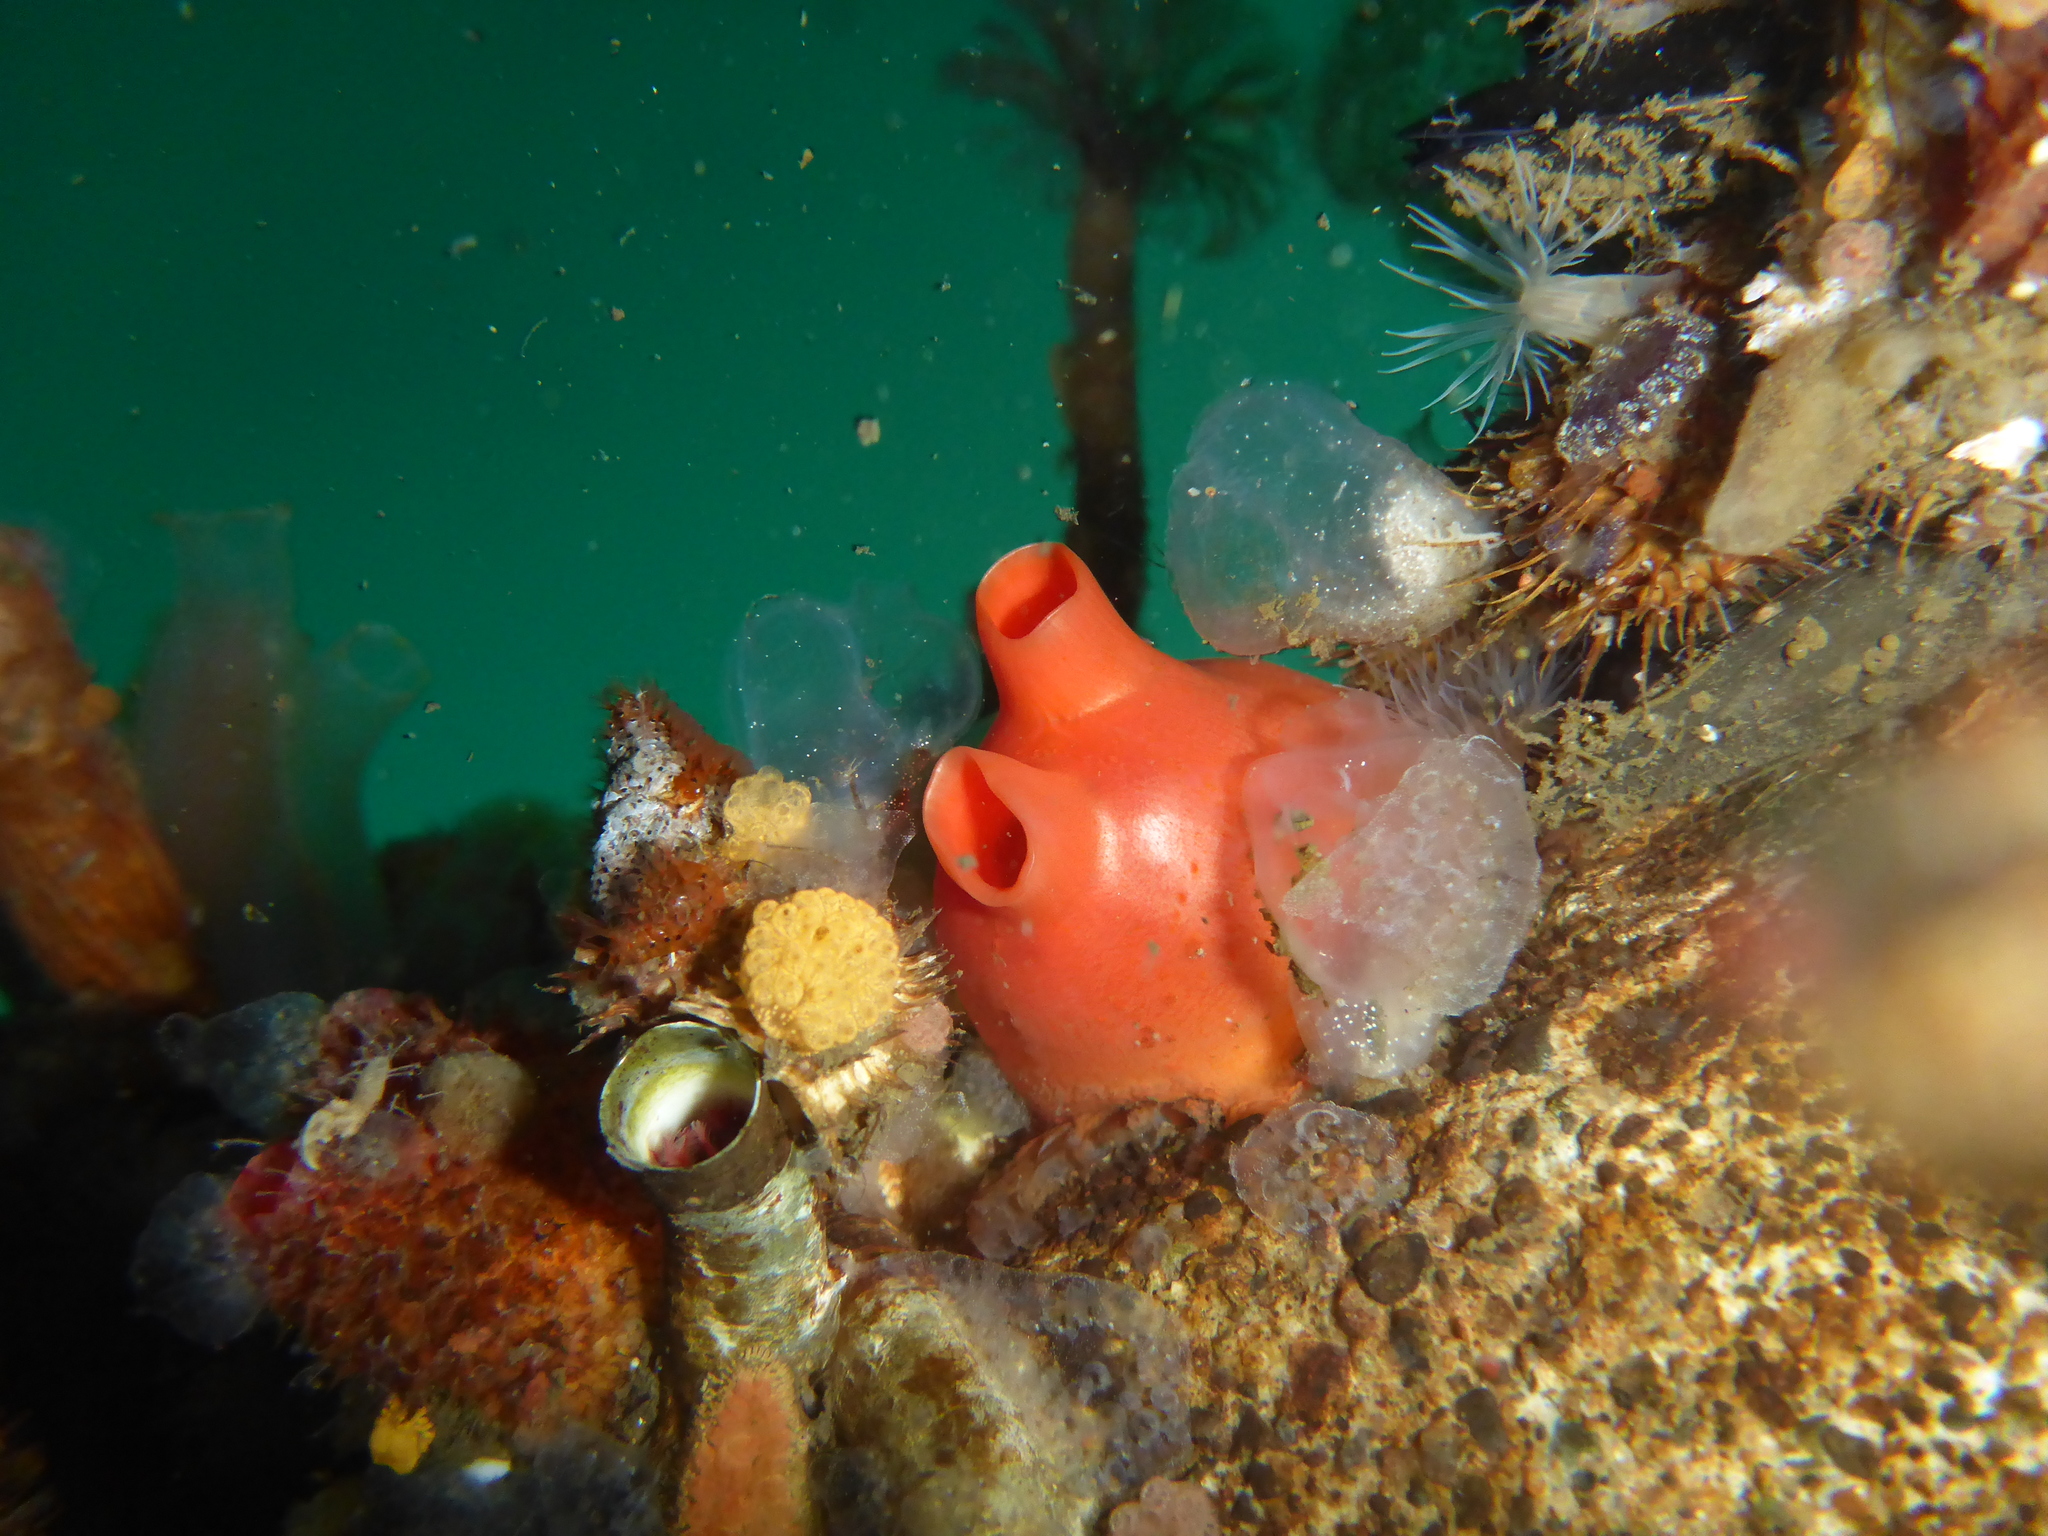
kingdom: Animalia
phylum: Chordata
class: Ascidiacea
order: Stolidobranchia
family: Styelidae
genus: Cnemidocarpa
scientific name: Cnemidocarpa finmarkiensis
